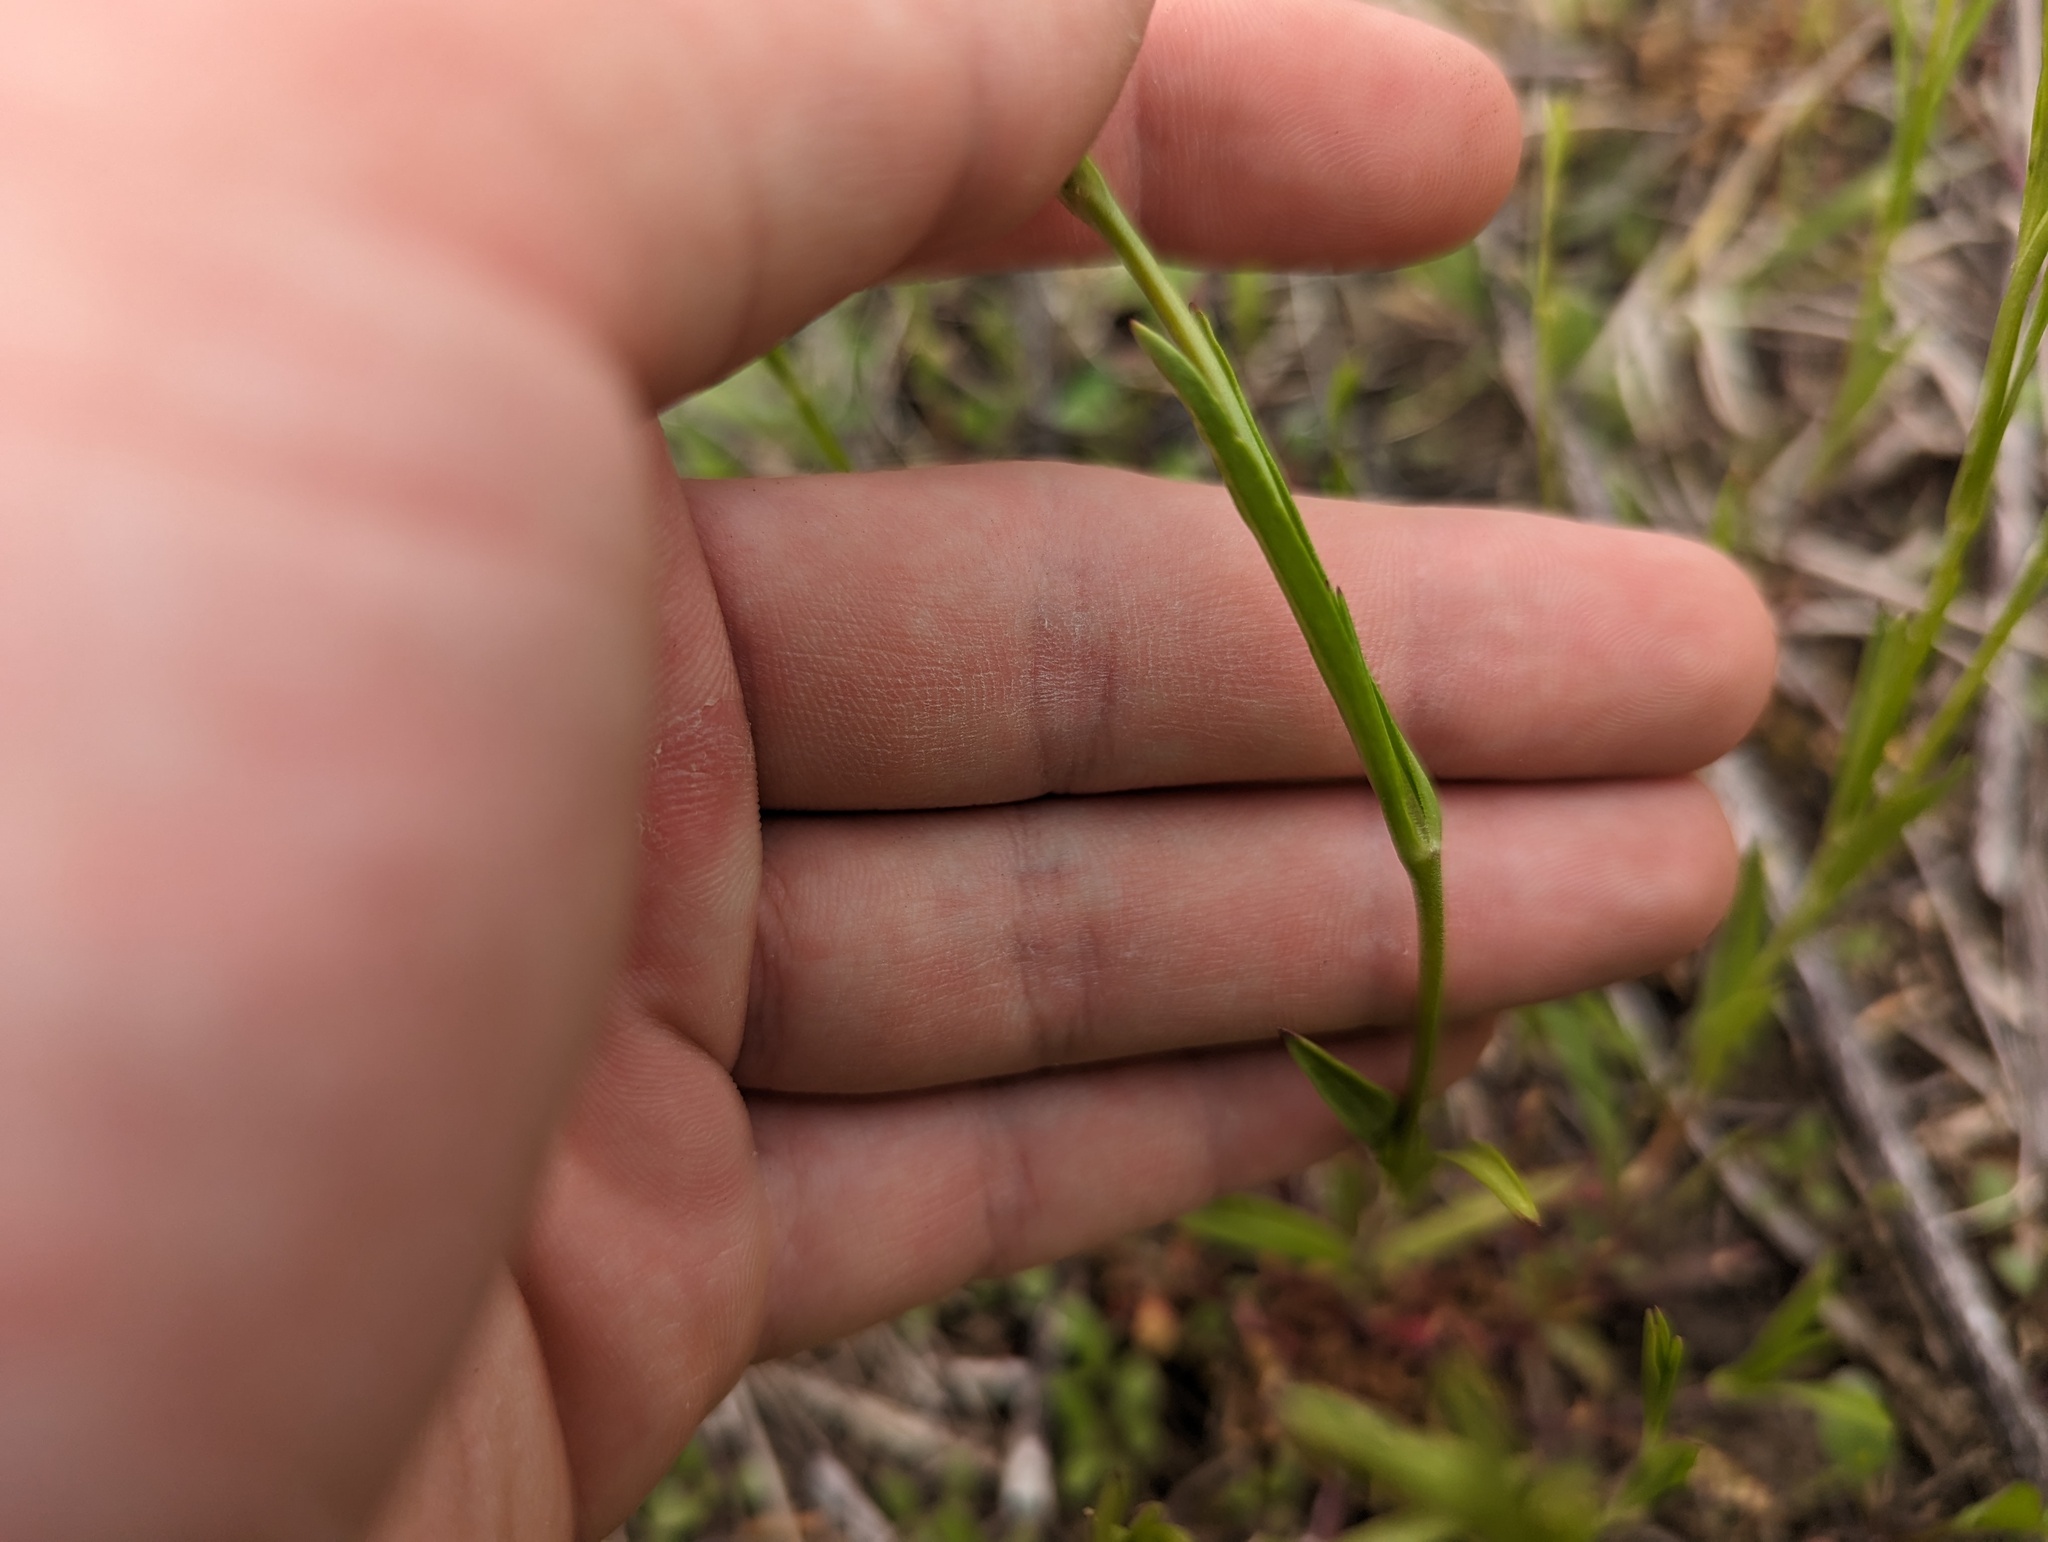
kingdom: Plantae
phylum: Tracheophyta
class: Magnoliopsida
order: Caryophyllales
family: Caryophyllaceae
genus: Silene
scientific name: Silene antirrhina
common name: Sleepy catchfly
